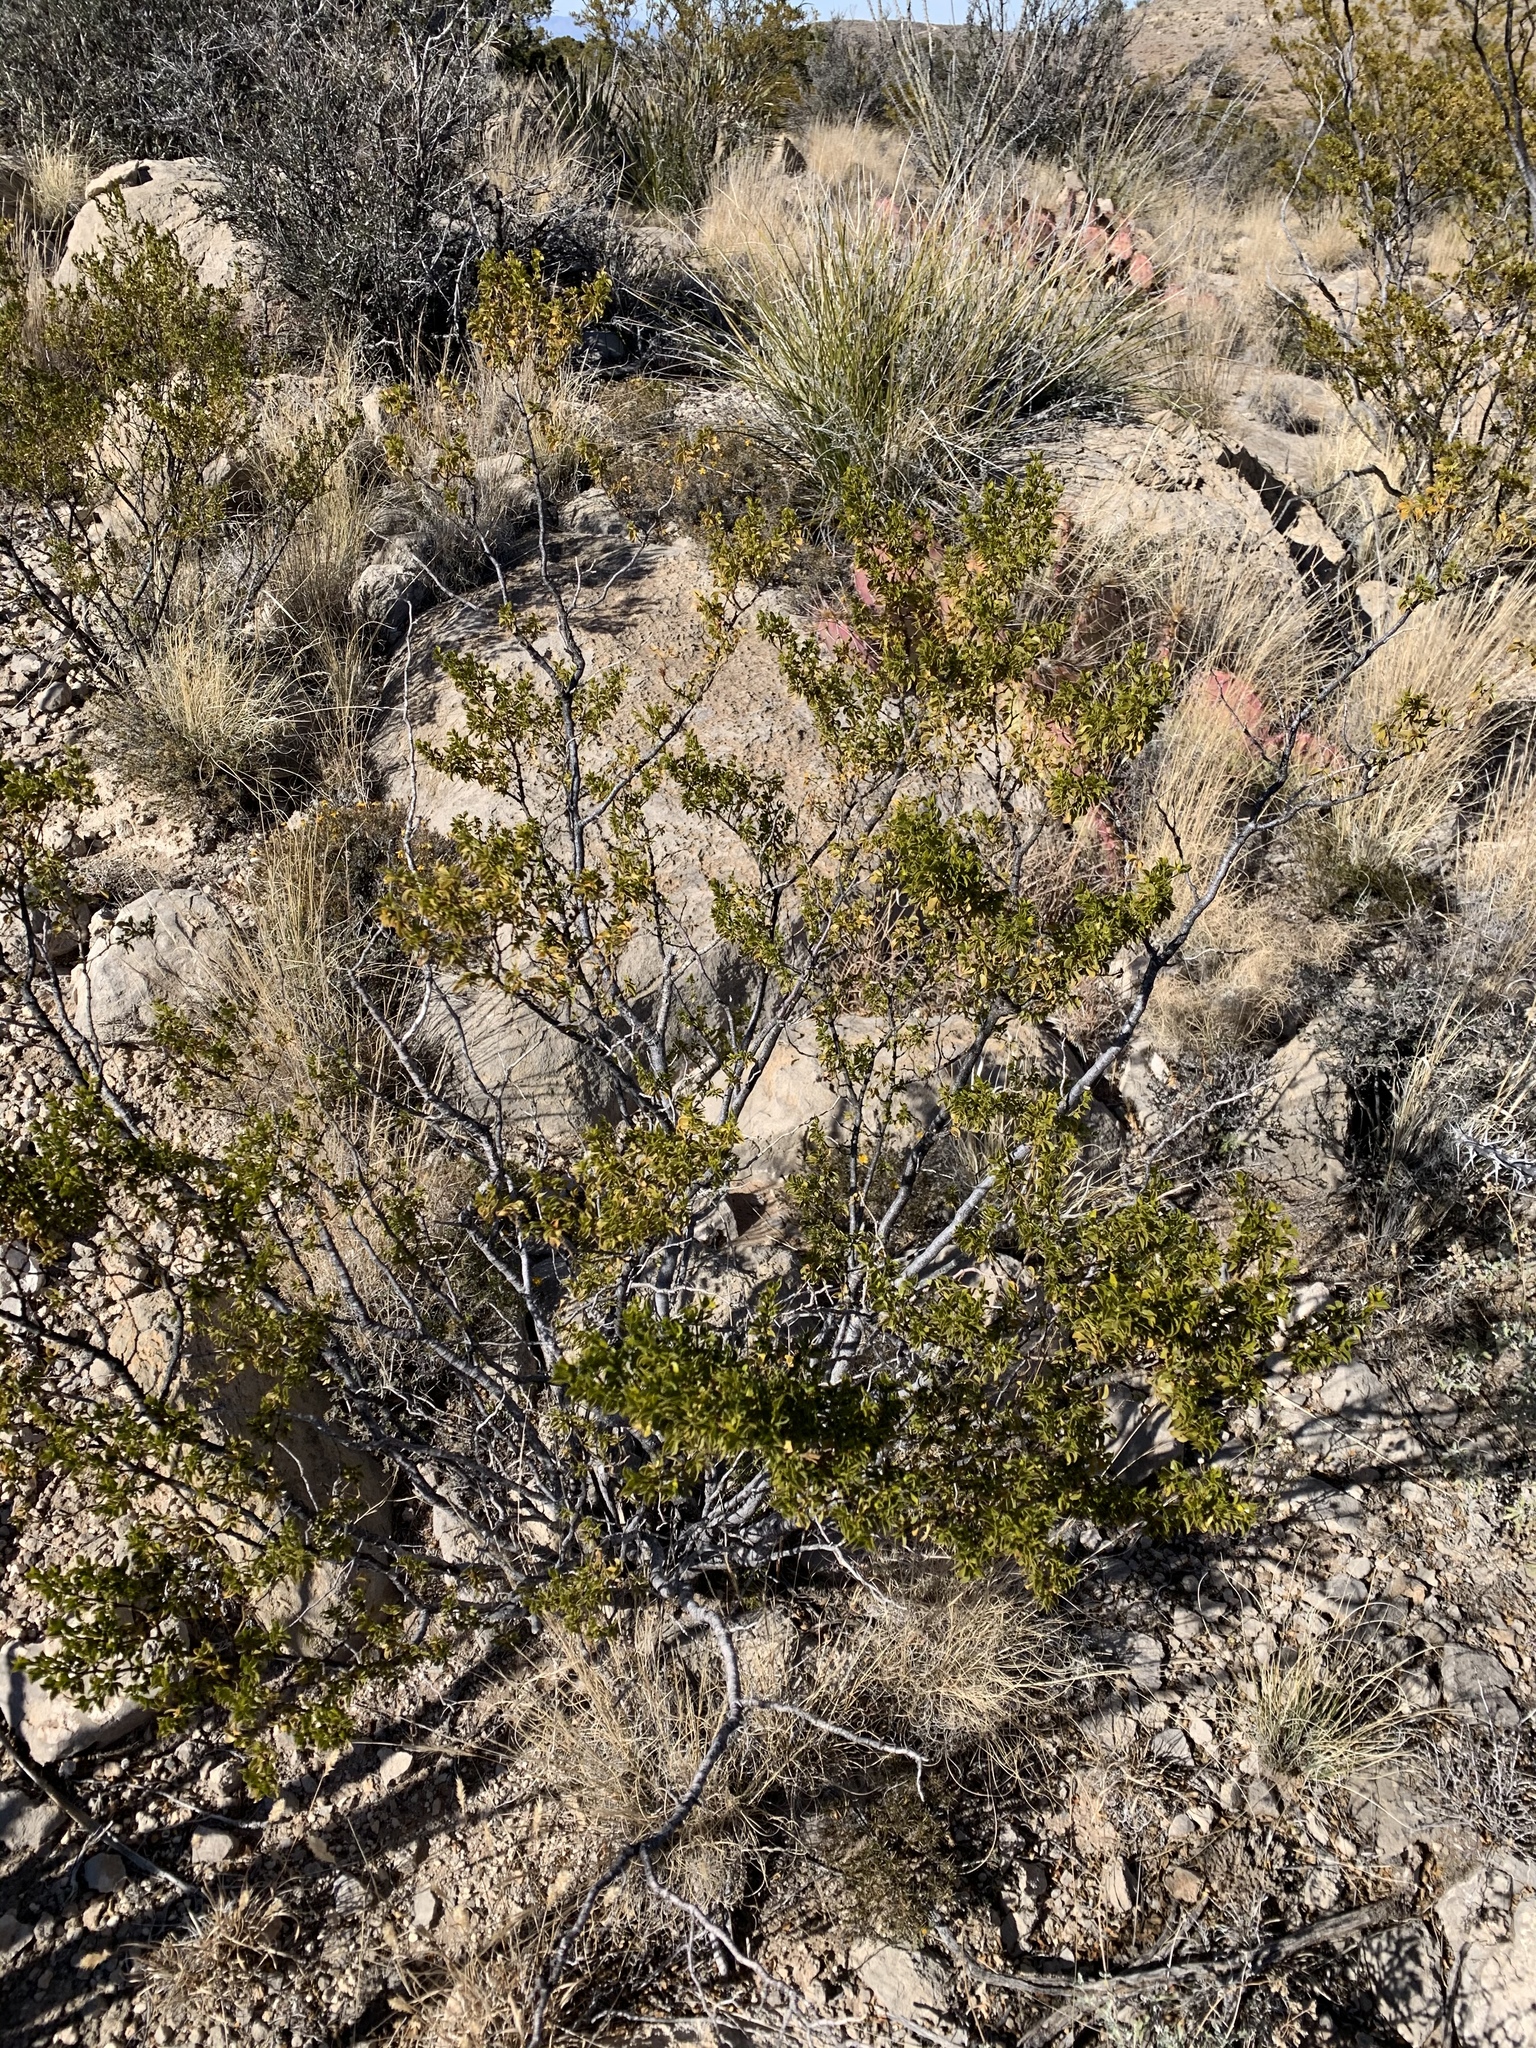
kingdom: Plantae
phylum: Tracheophyta
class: Magnoliopsida
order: Zygophyllales
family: Zygophyllaceae
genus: Larrea
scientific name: Larrea tridentata
